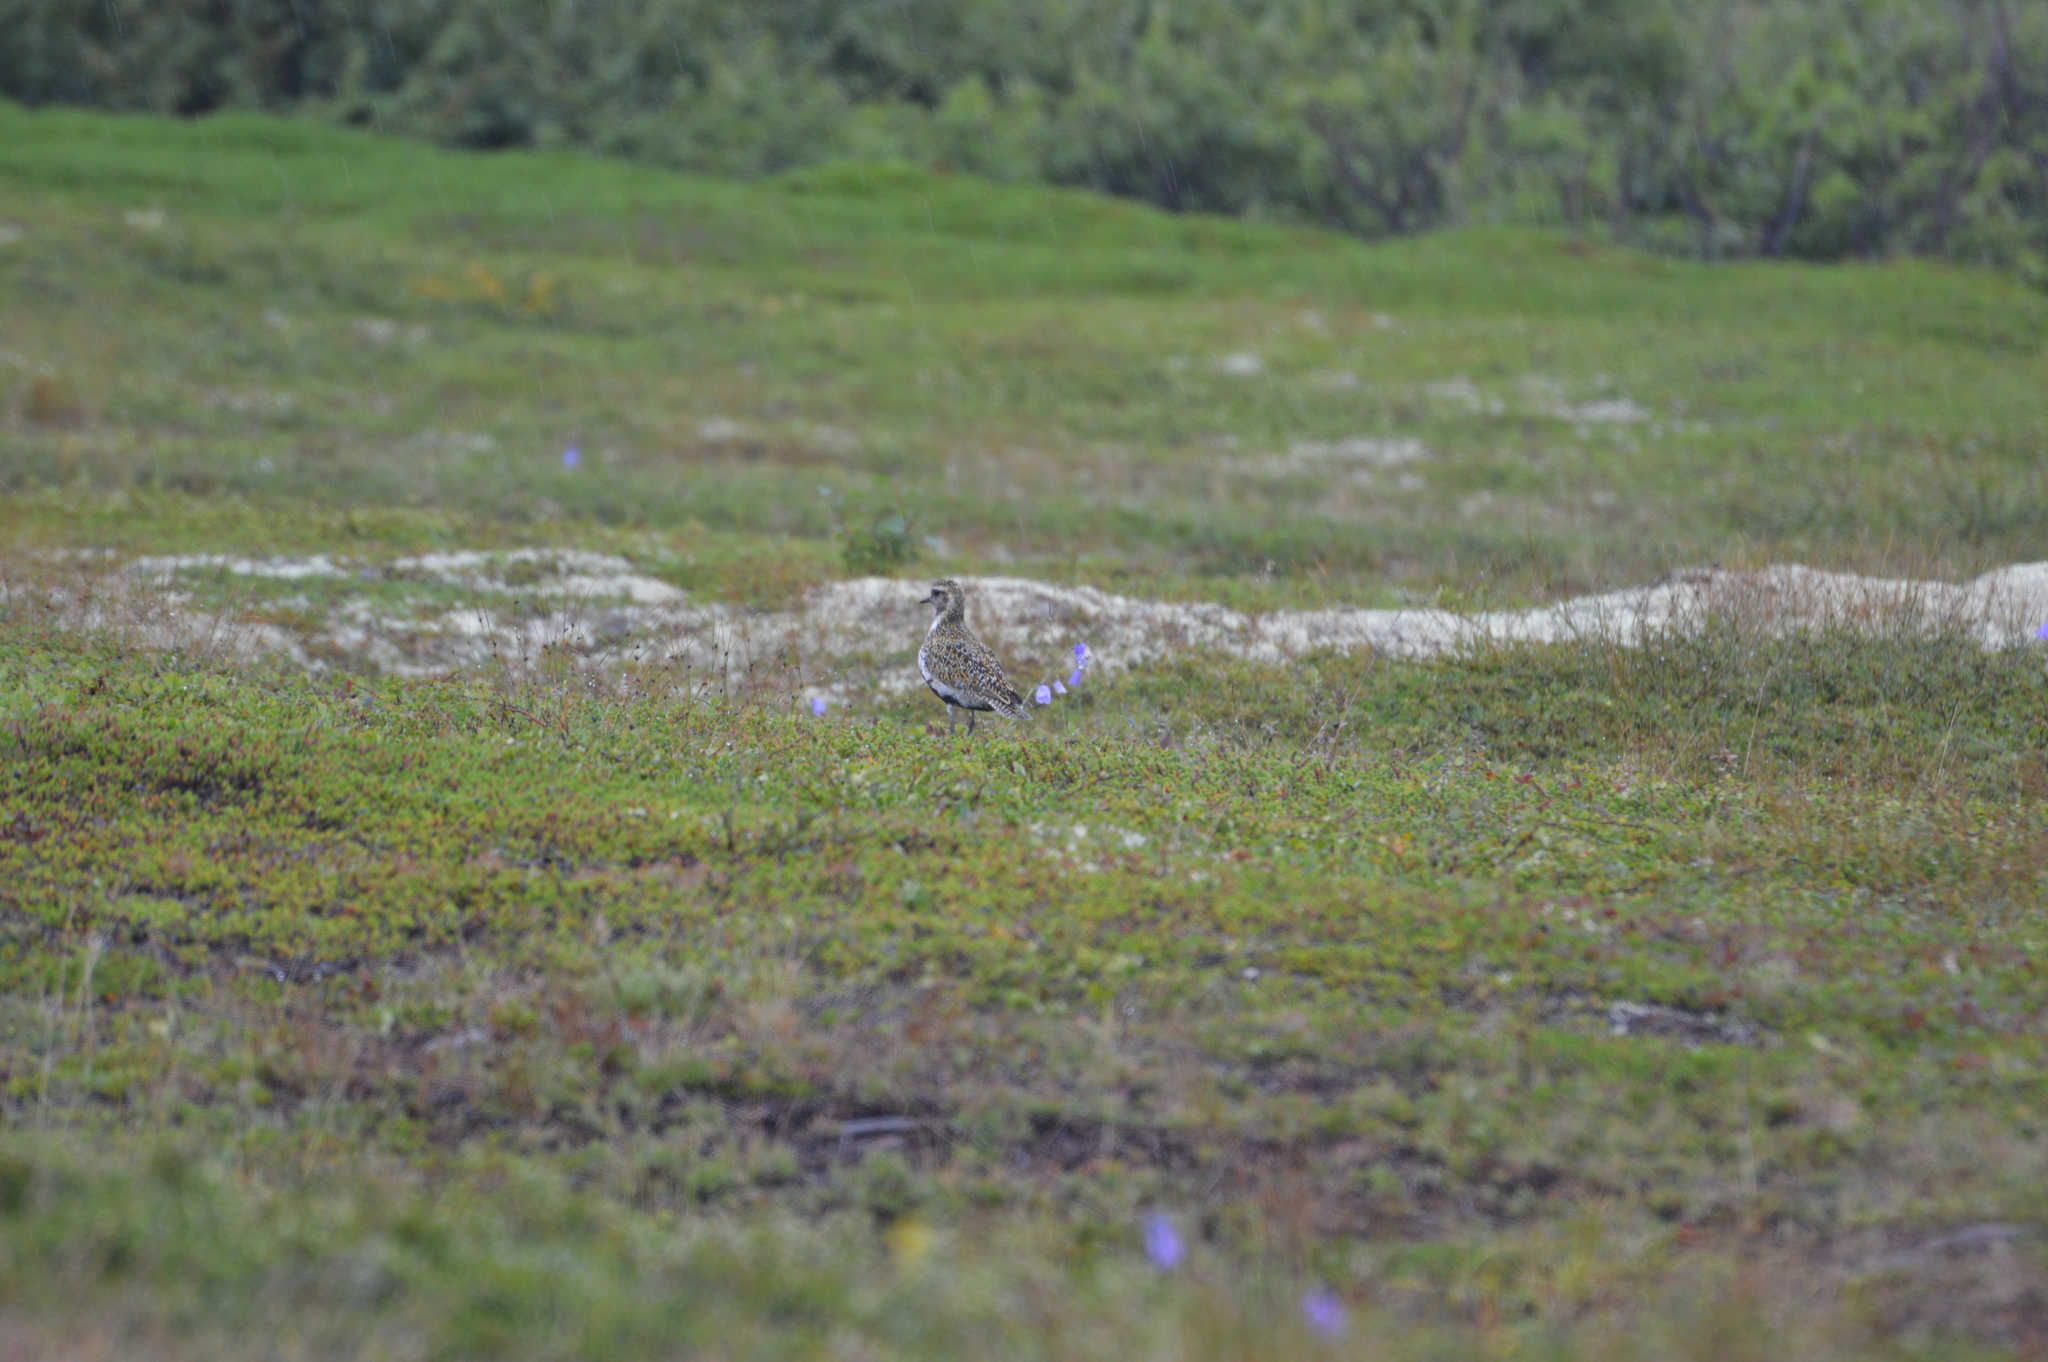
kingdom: Animalia
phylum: Chordata
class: Aves
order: Charadriiformes
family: Charadriidae
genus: Pluvialis
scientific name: Pluvialis apricaria
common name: European golden plover
